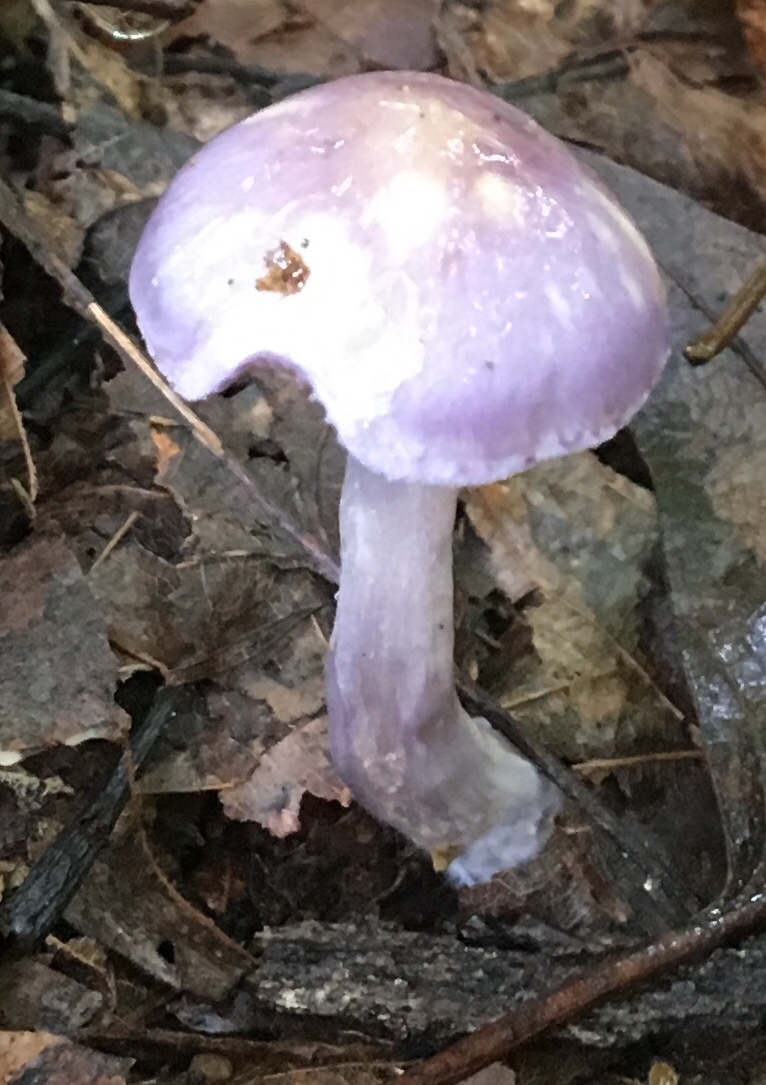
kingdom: Fungi
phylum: Basidiomycota
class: Agaricomycetes
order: Agaricales
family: Cortinariaceae
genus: Cortinarius
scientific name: Cortinarius iodes
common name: Viscid violet cort
